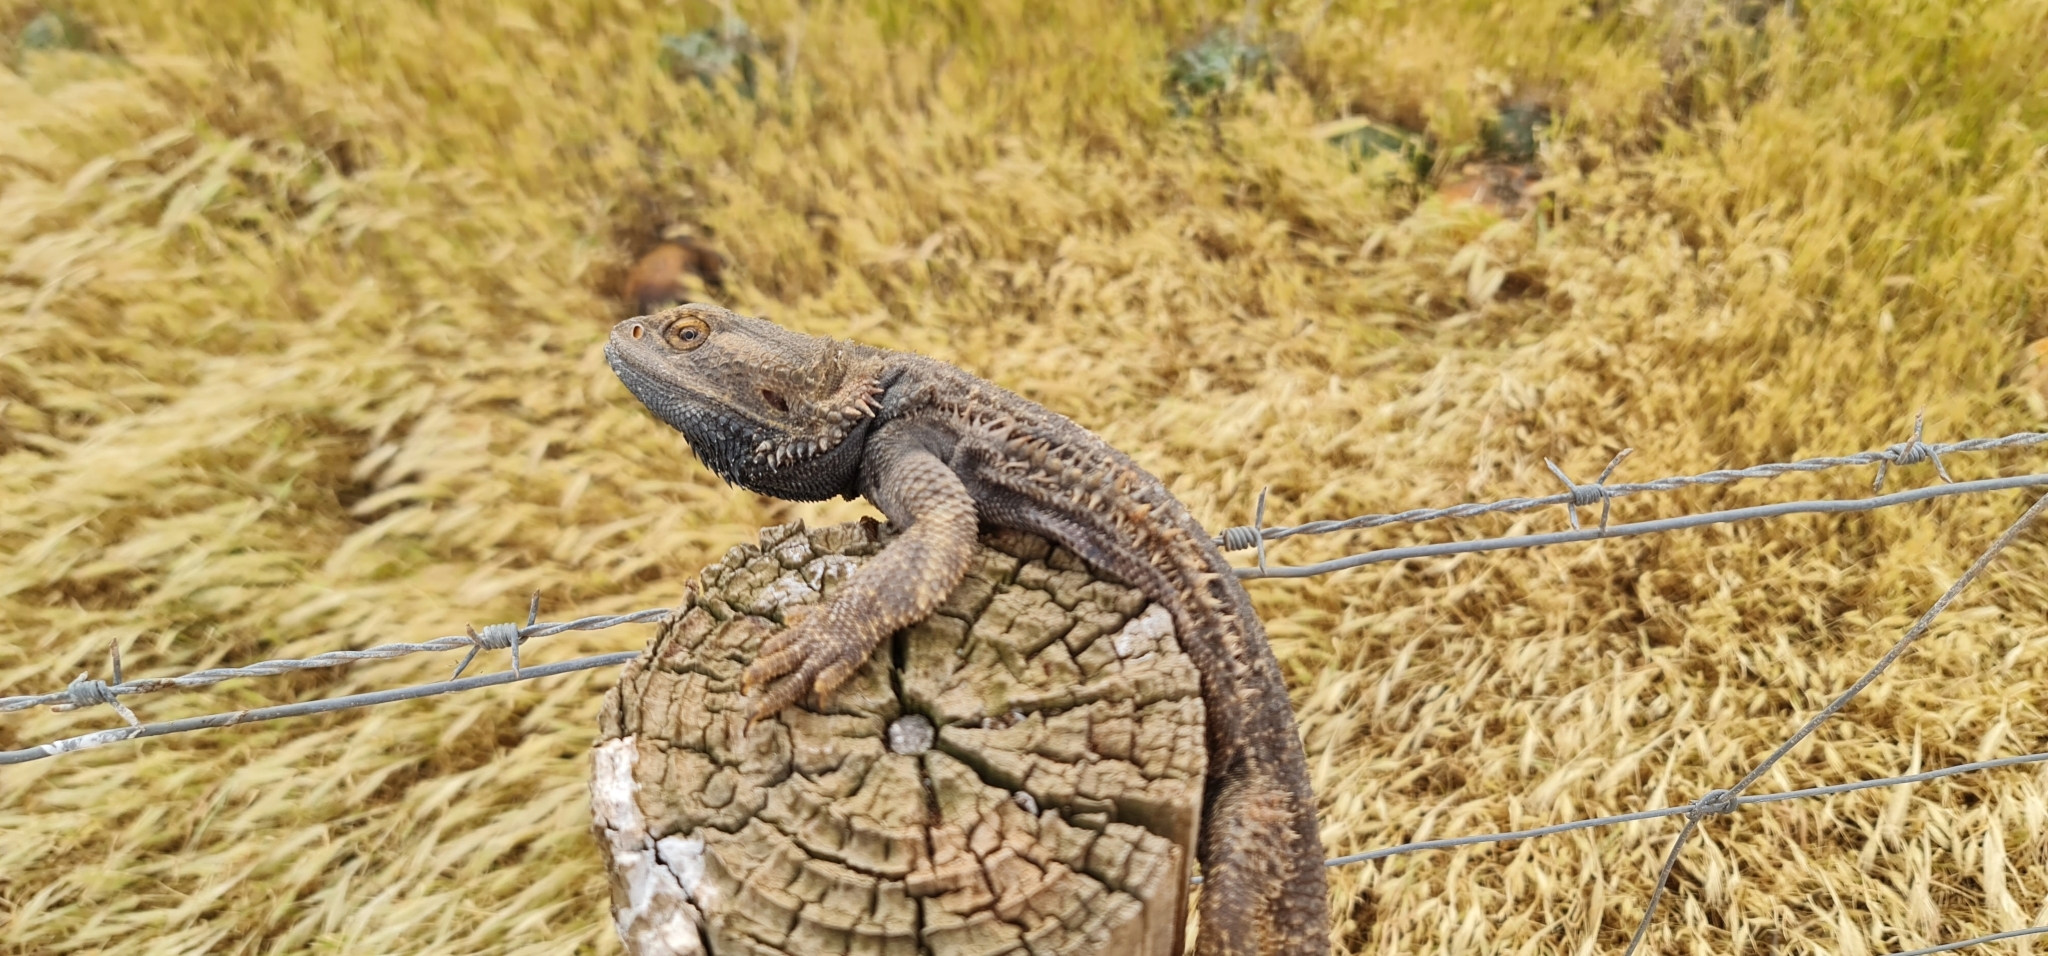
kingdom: Animalia
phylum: Chordata
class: Squamata
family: Agamidae
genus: Pogona
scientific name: Pogona vitticeps
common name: Central bearded dragon
